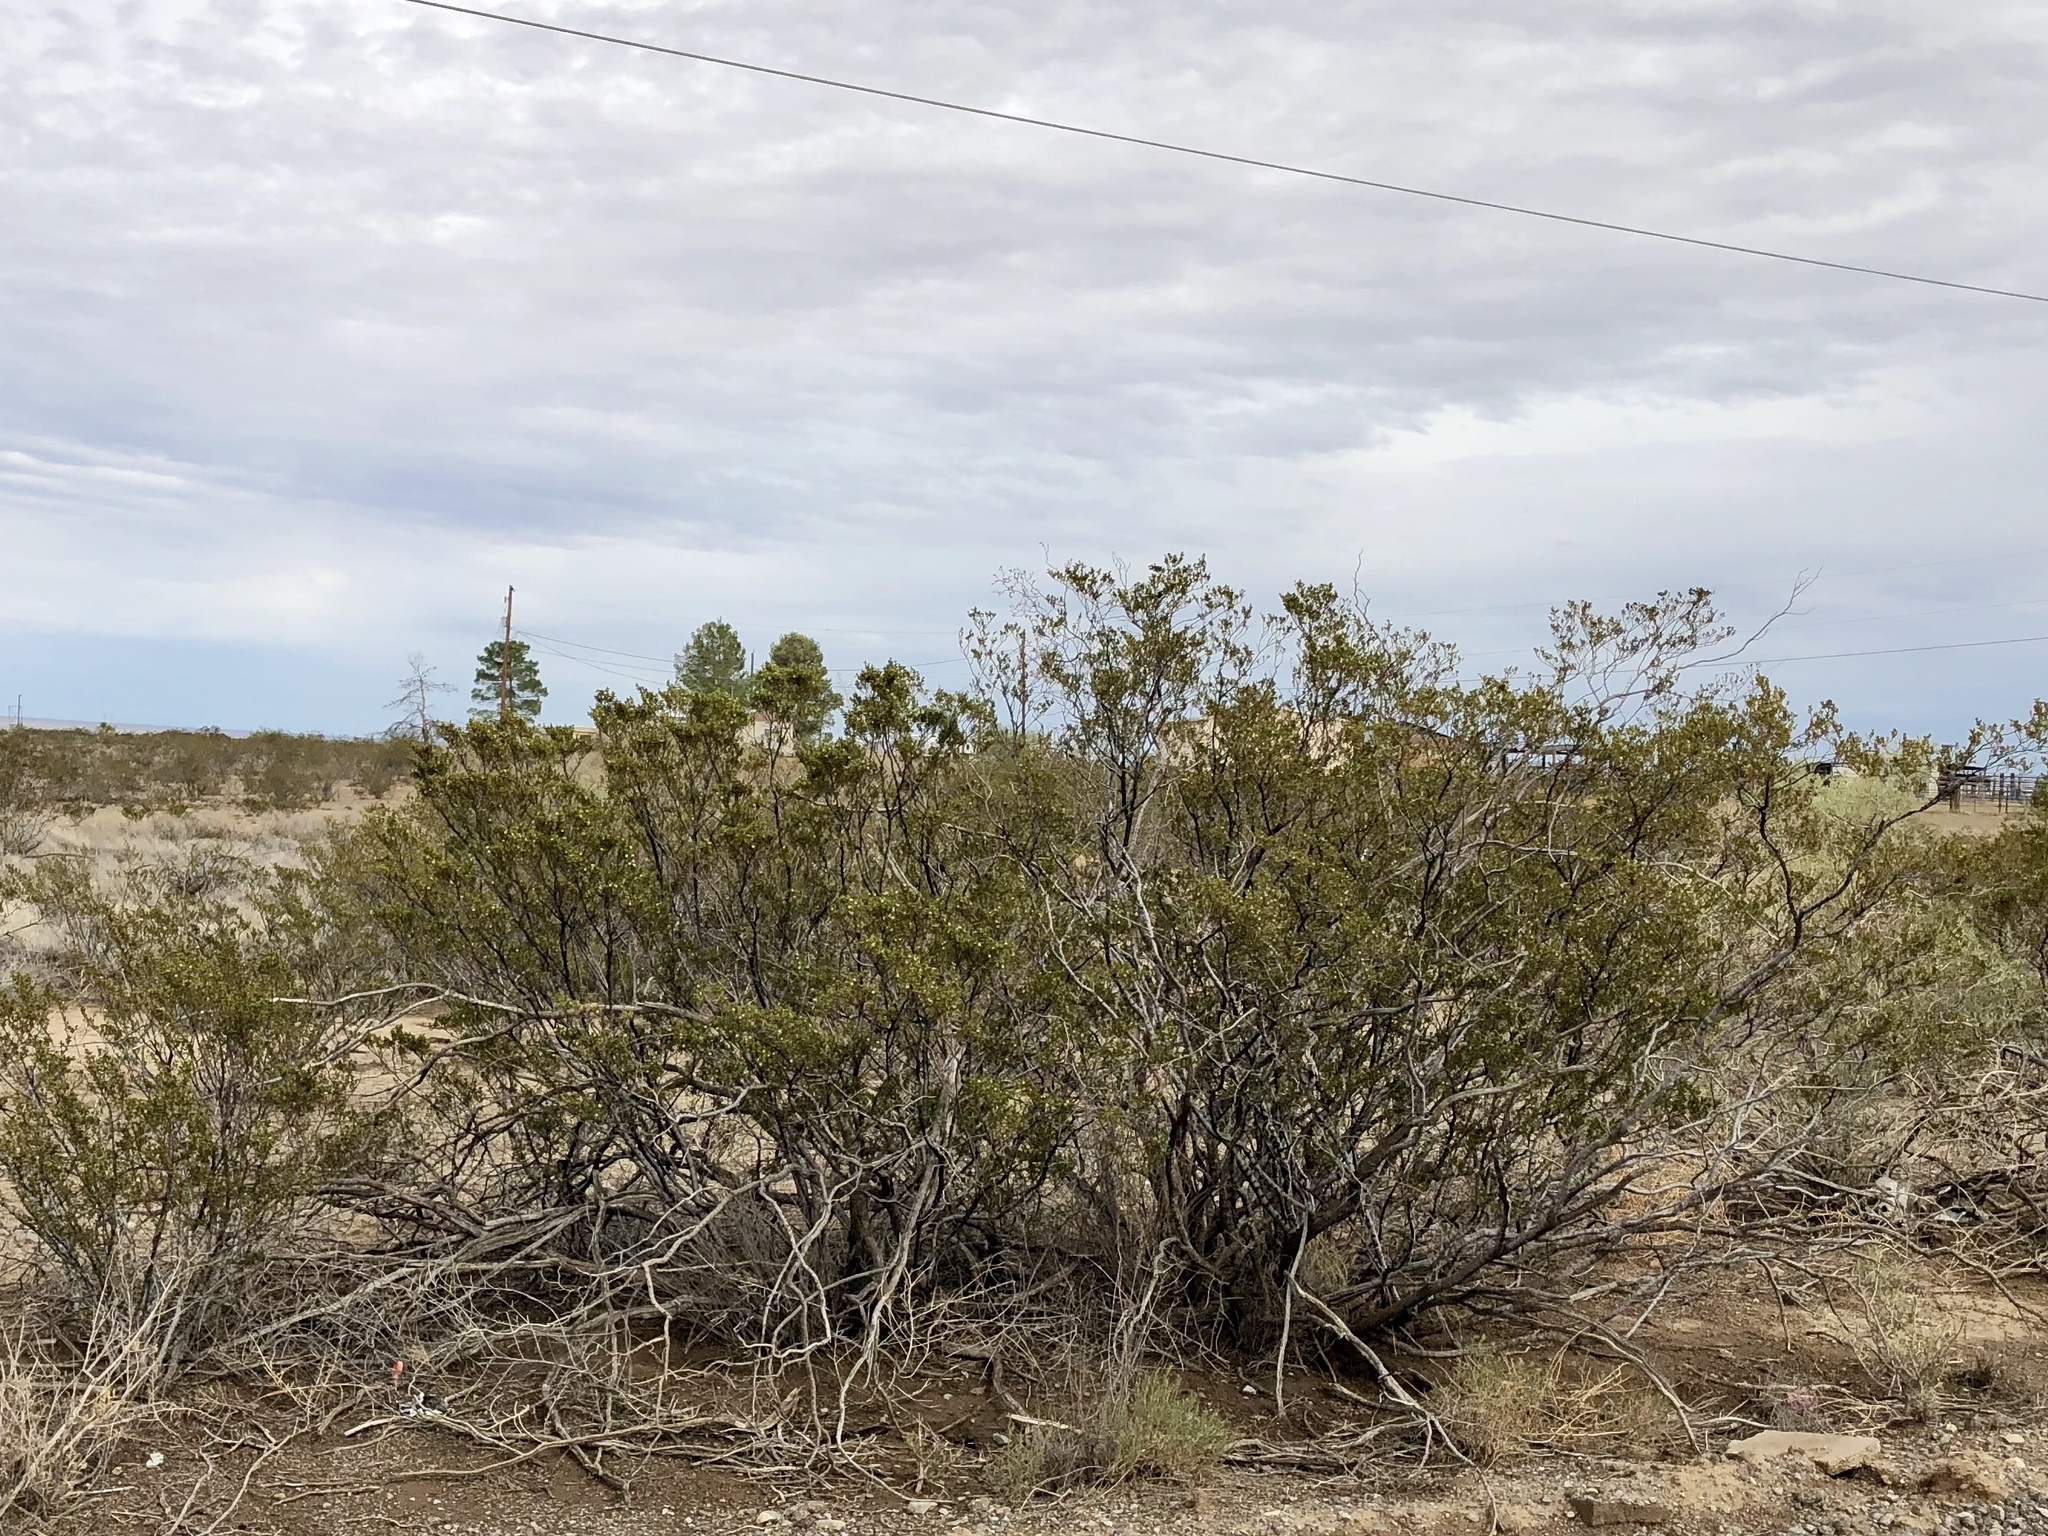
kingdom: Plantae
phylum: Tracheophyta
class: Magnoliopsida
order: Zygophyllales
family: Zygophyllaceae
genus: Larrea
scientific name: Larrea tridentata
